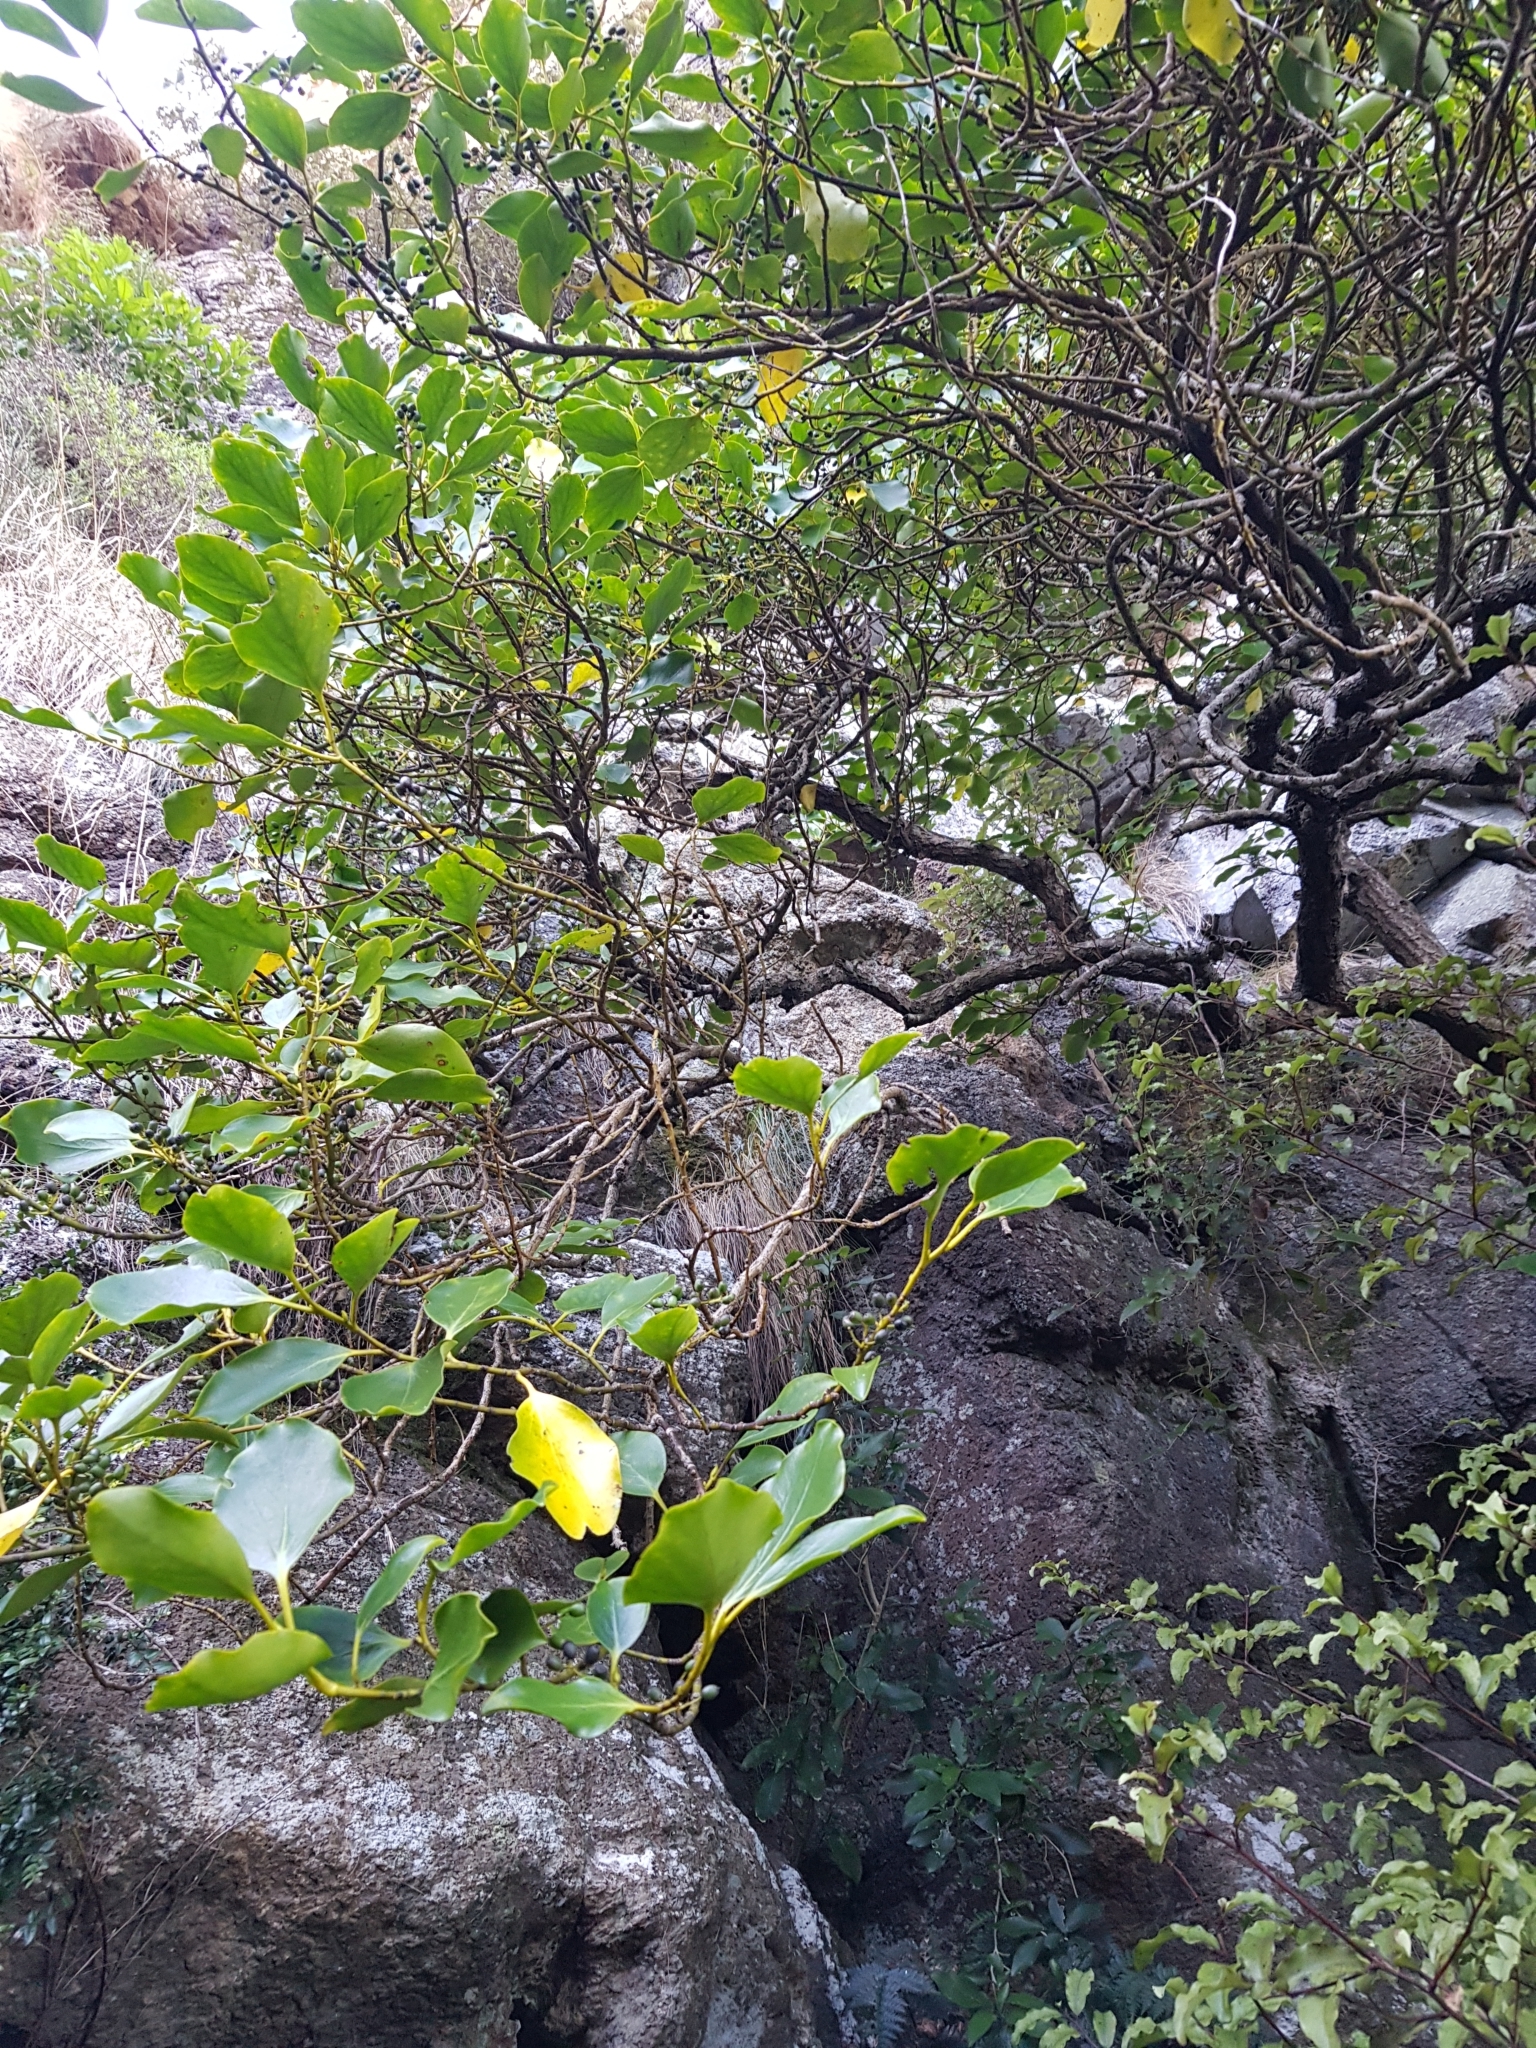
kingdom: Plantae
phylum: Tracheophyta
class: Magnoliopsida
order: Apiales
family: Griseliniaceae
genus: Griselinia
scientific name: Griselinia littoralis
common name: New zealand broadleaf
